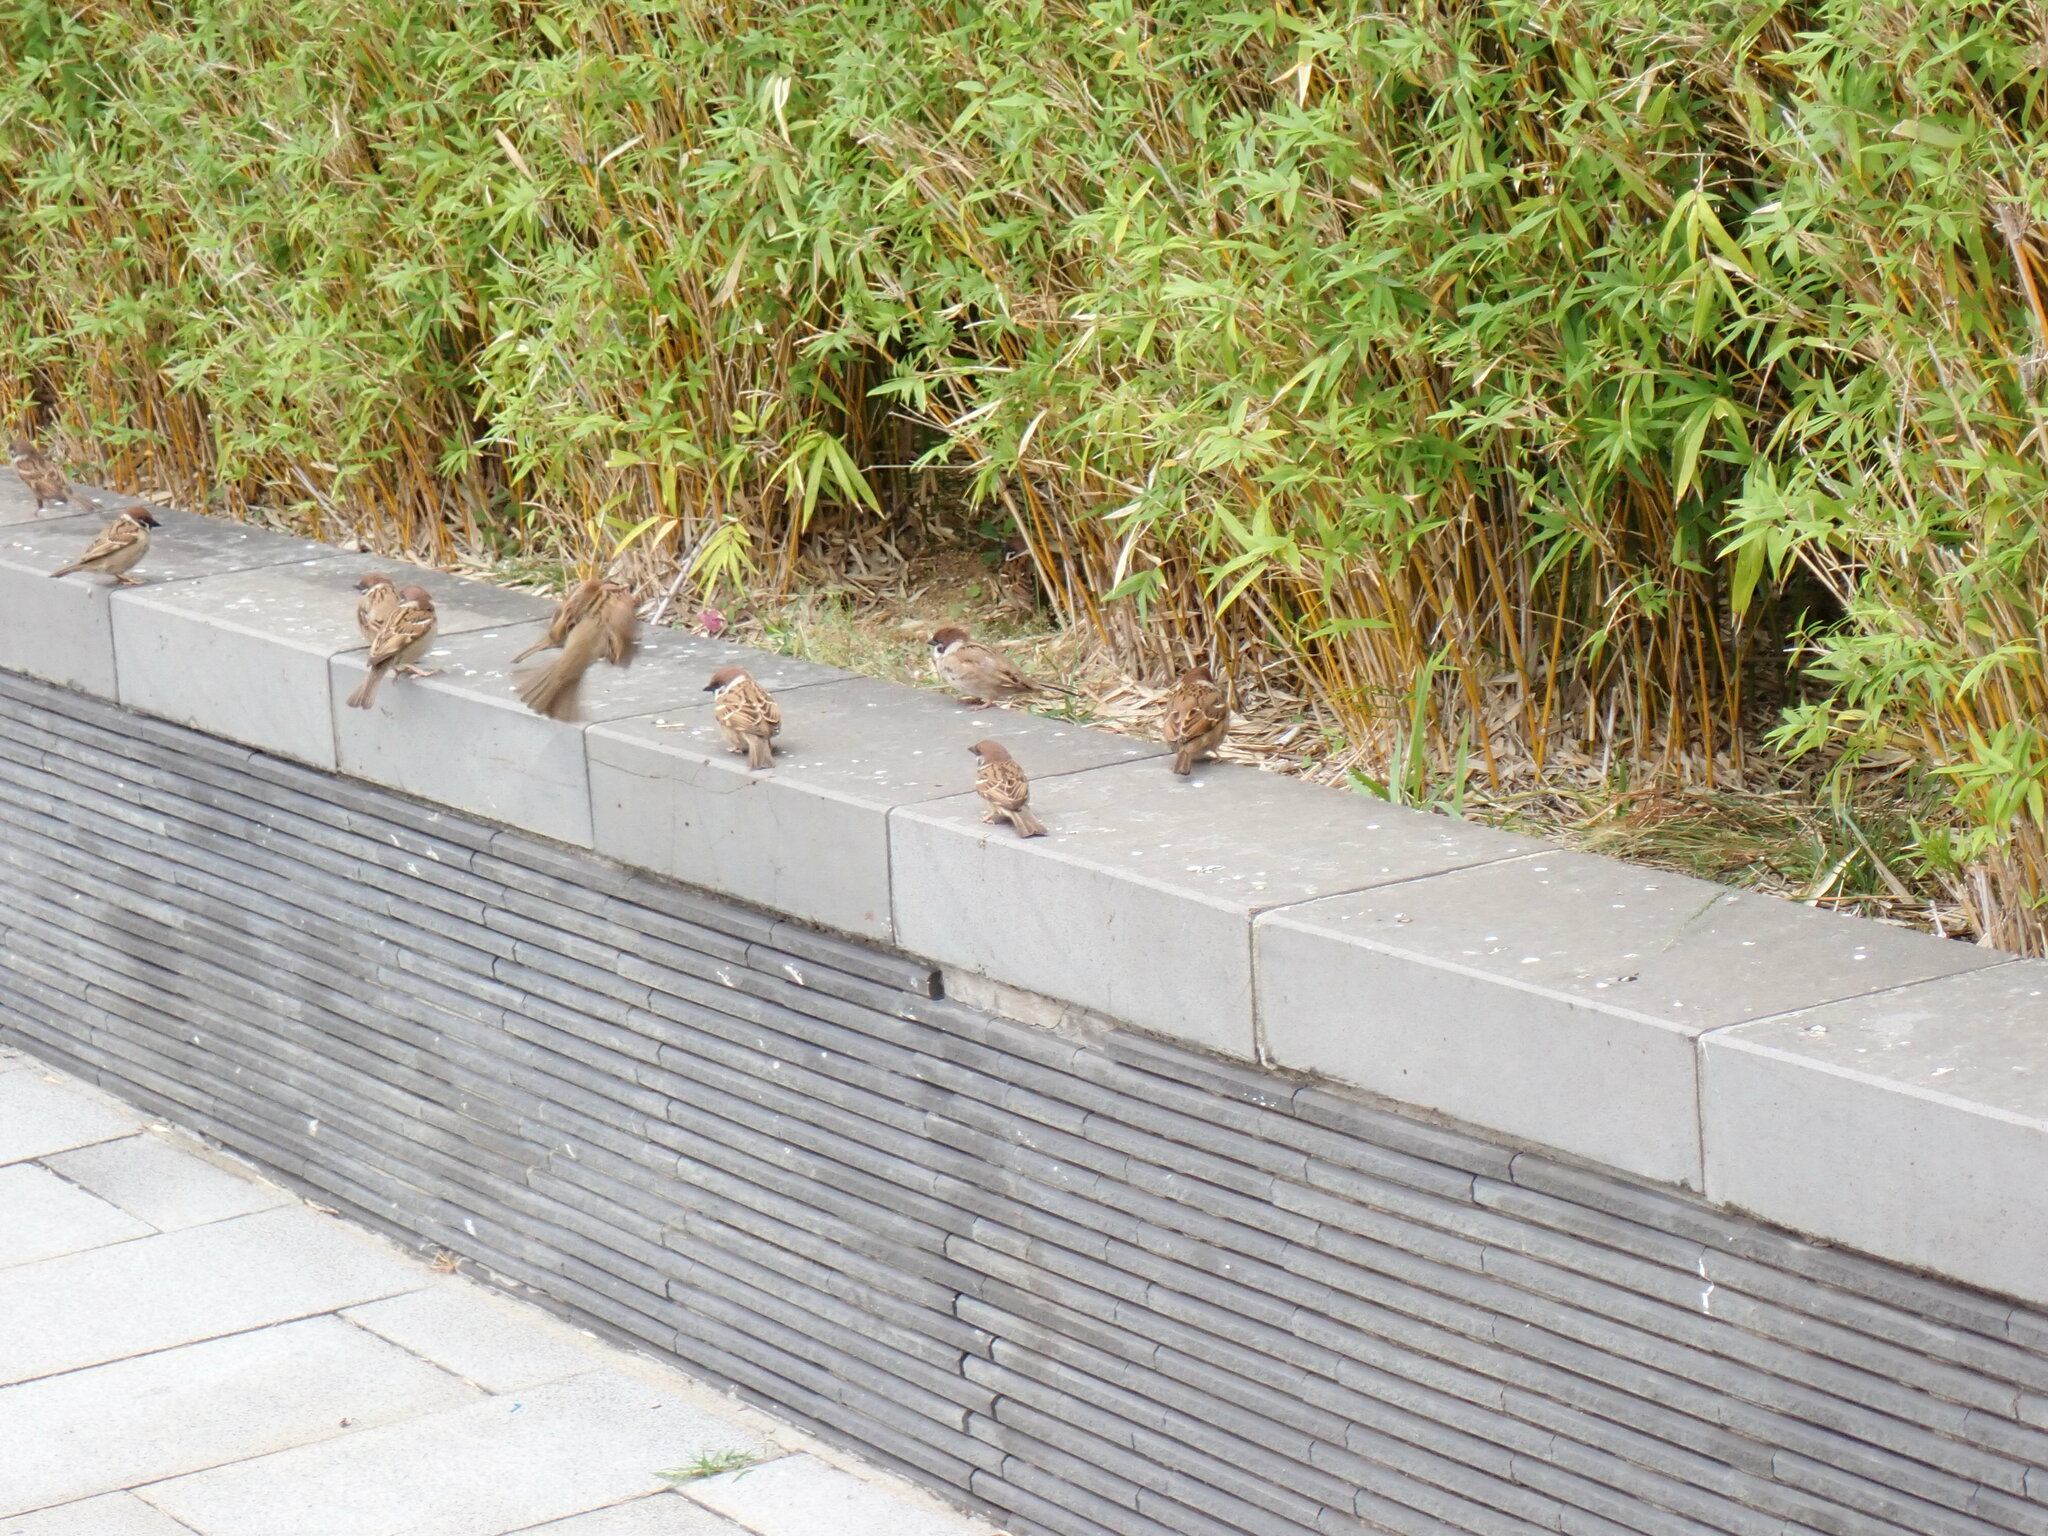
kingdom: Animalia
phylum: Chordata
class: Aves
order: Passeriformes
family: Passeridae
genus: Passer
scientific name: Passer montanus
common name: Eurasian tree sparrow
